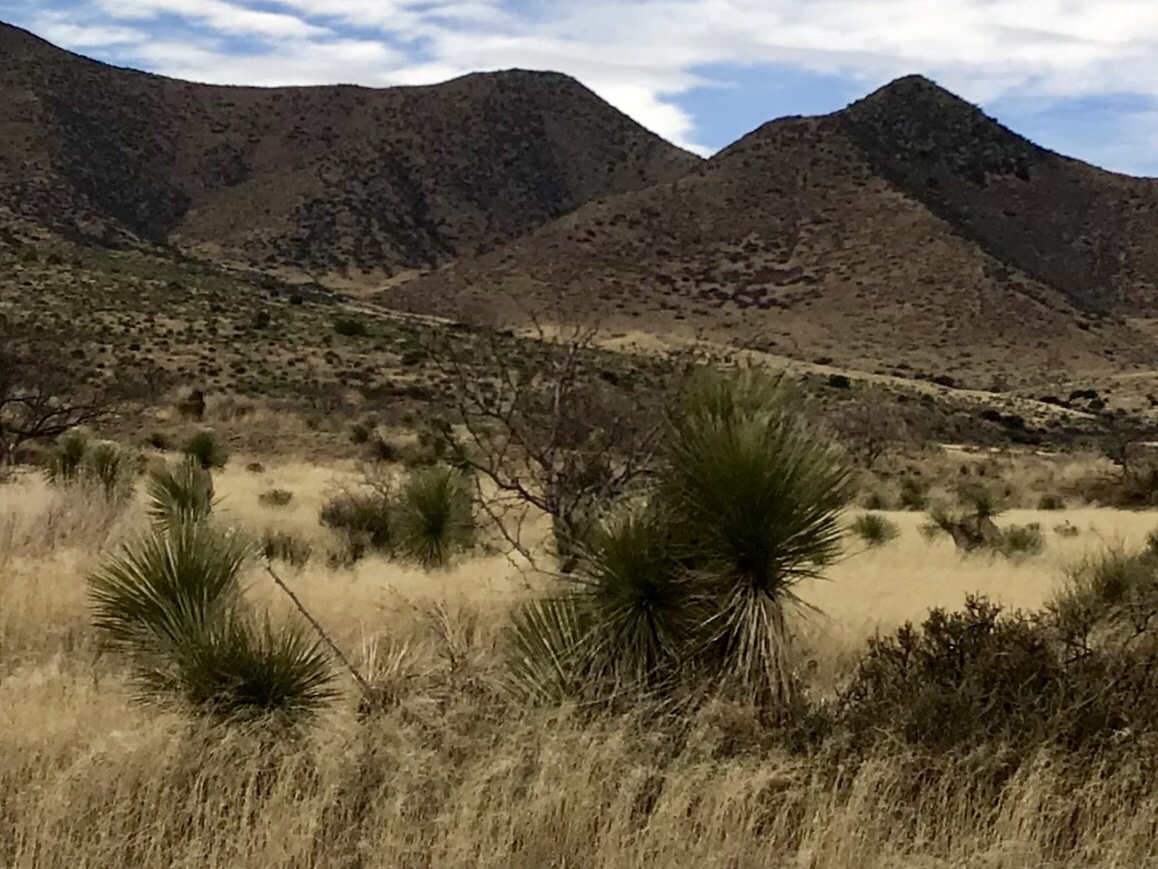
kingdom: Plantae
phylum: Tracheophyta
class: Liliopsida
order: Asparagales
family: Asparagaceae
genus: Yucca
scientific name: Yucca elata
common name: Palmella
